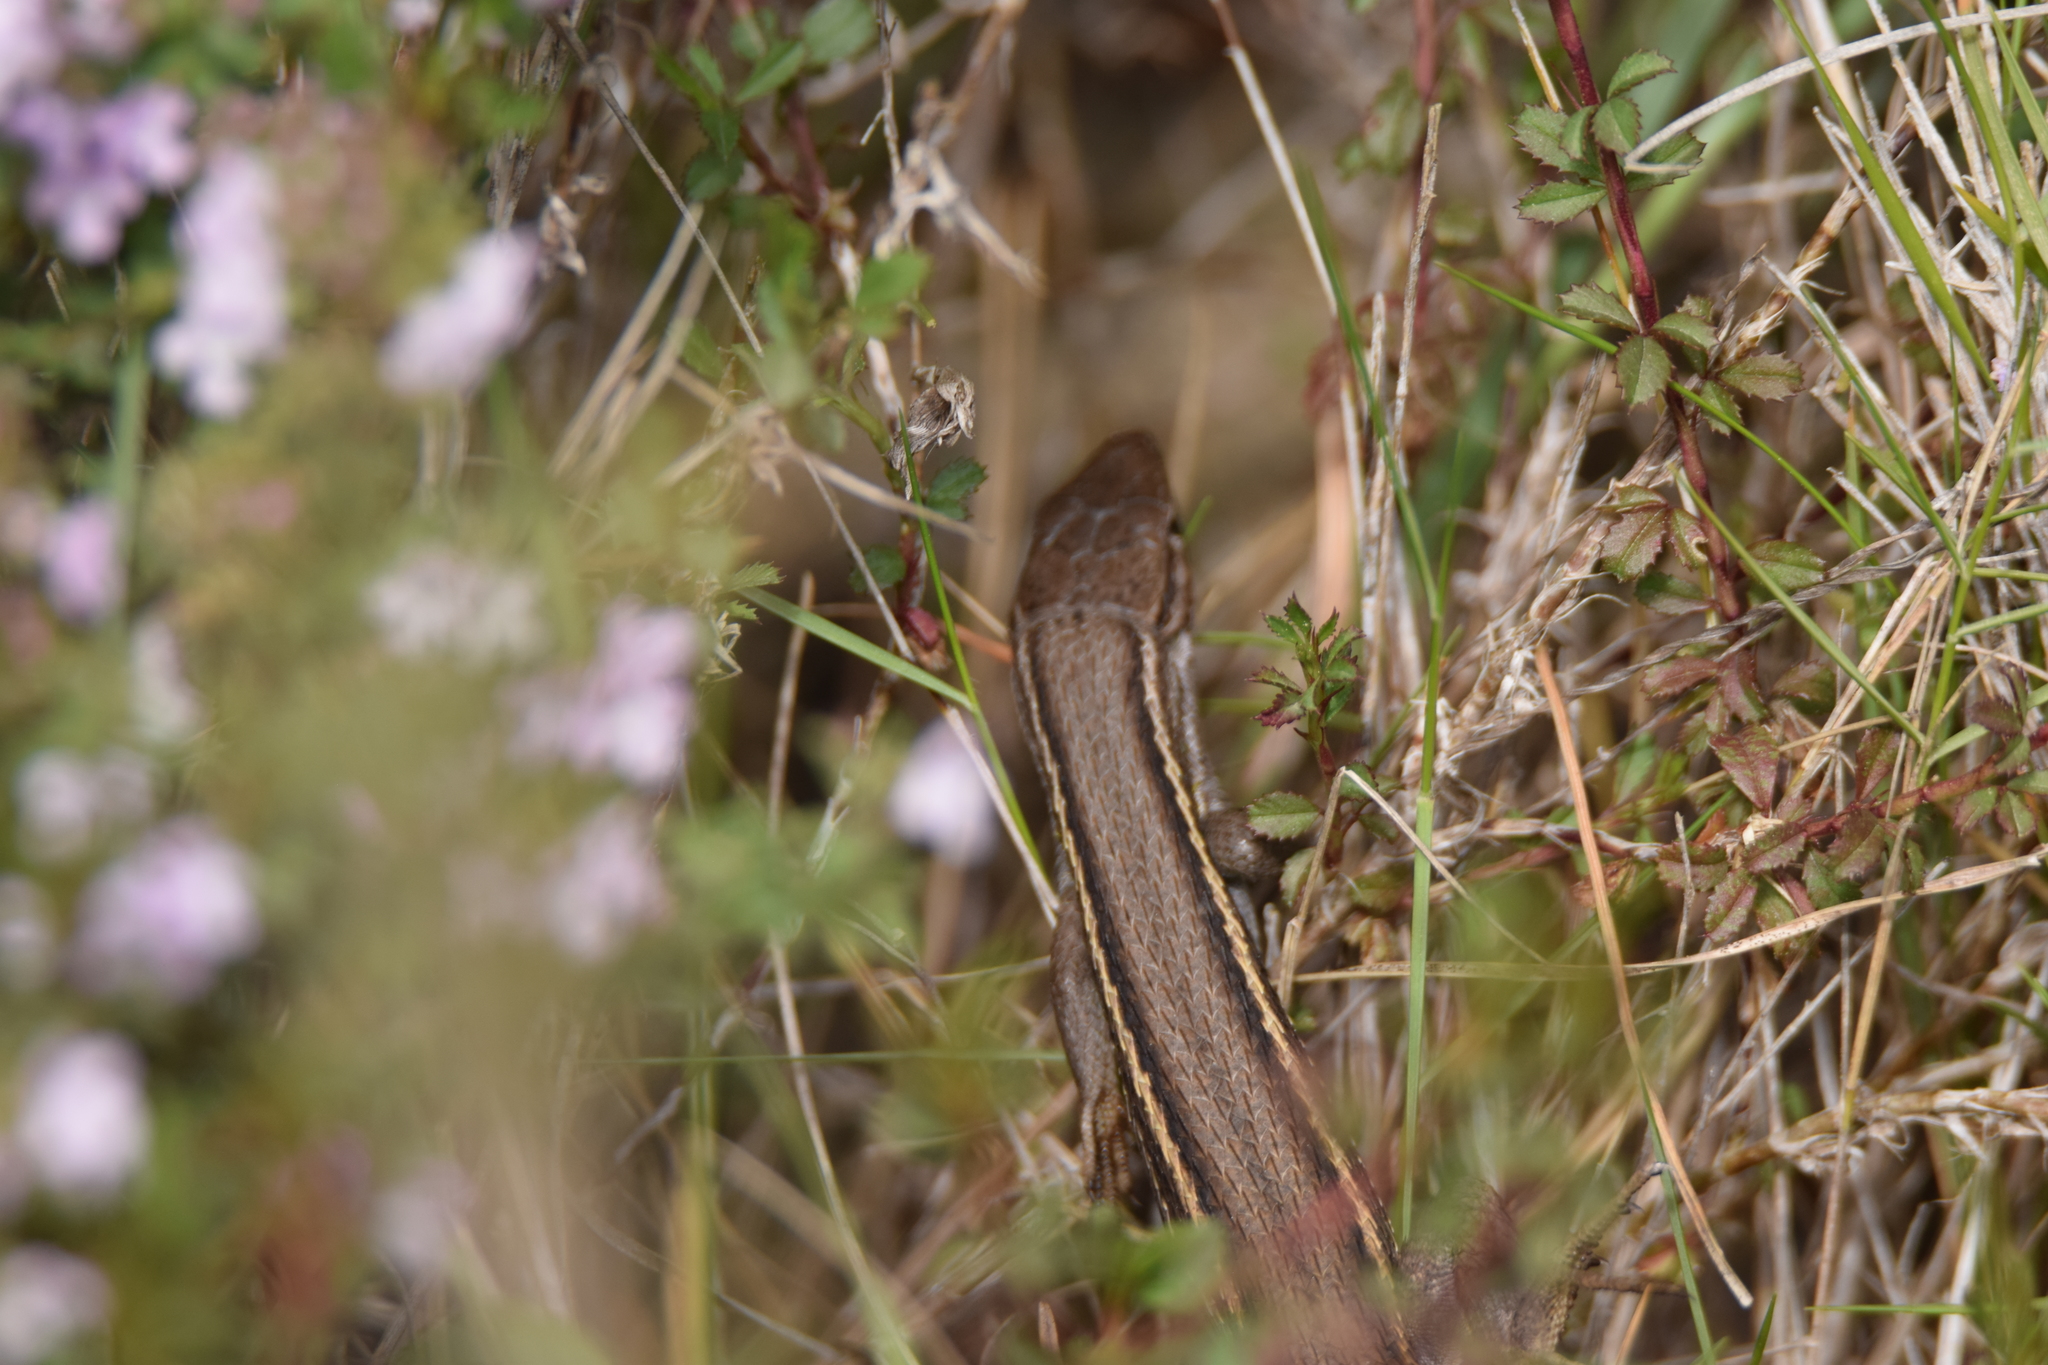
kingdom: Animalia
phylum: Chordata
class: Squamata
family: Lacertidae
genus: Psammodromus
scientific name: Psammodromus algirus
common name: Algerian psammodromus
